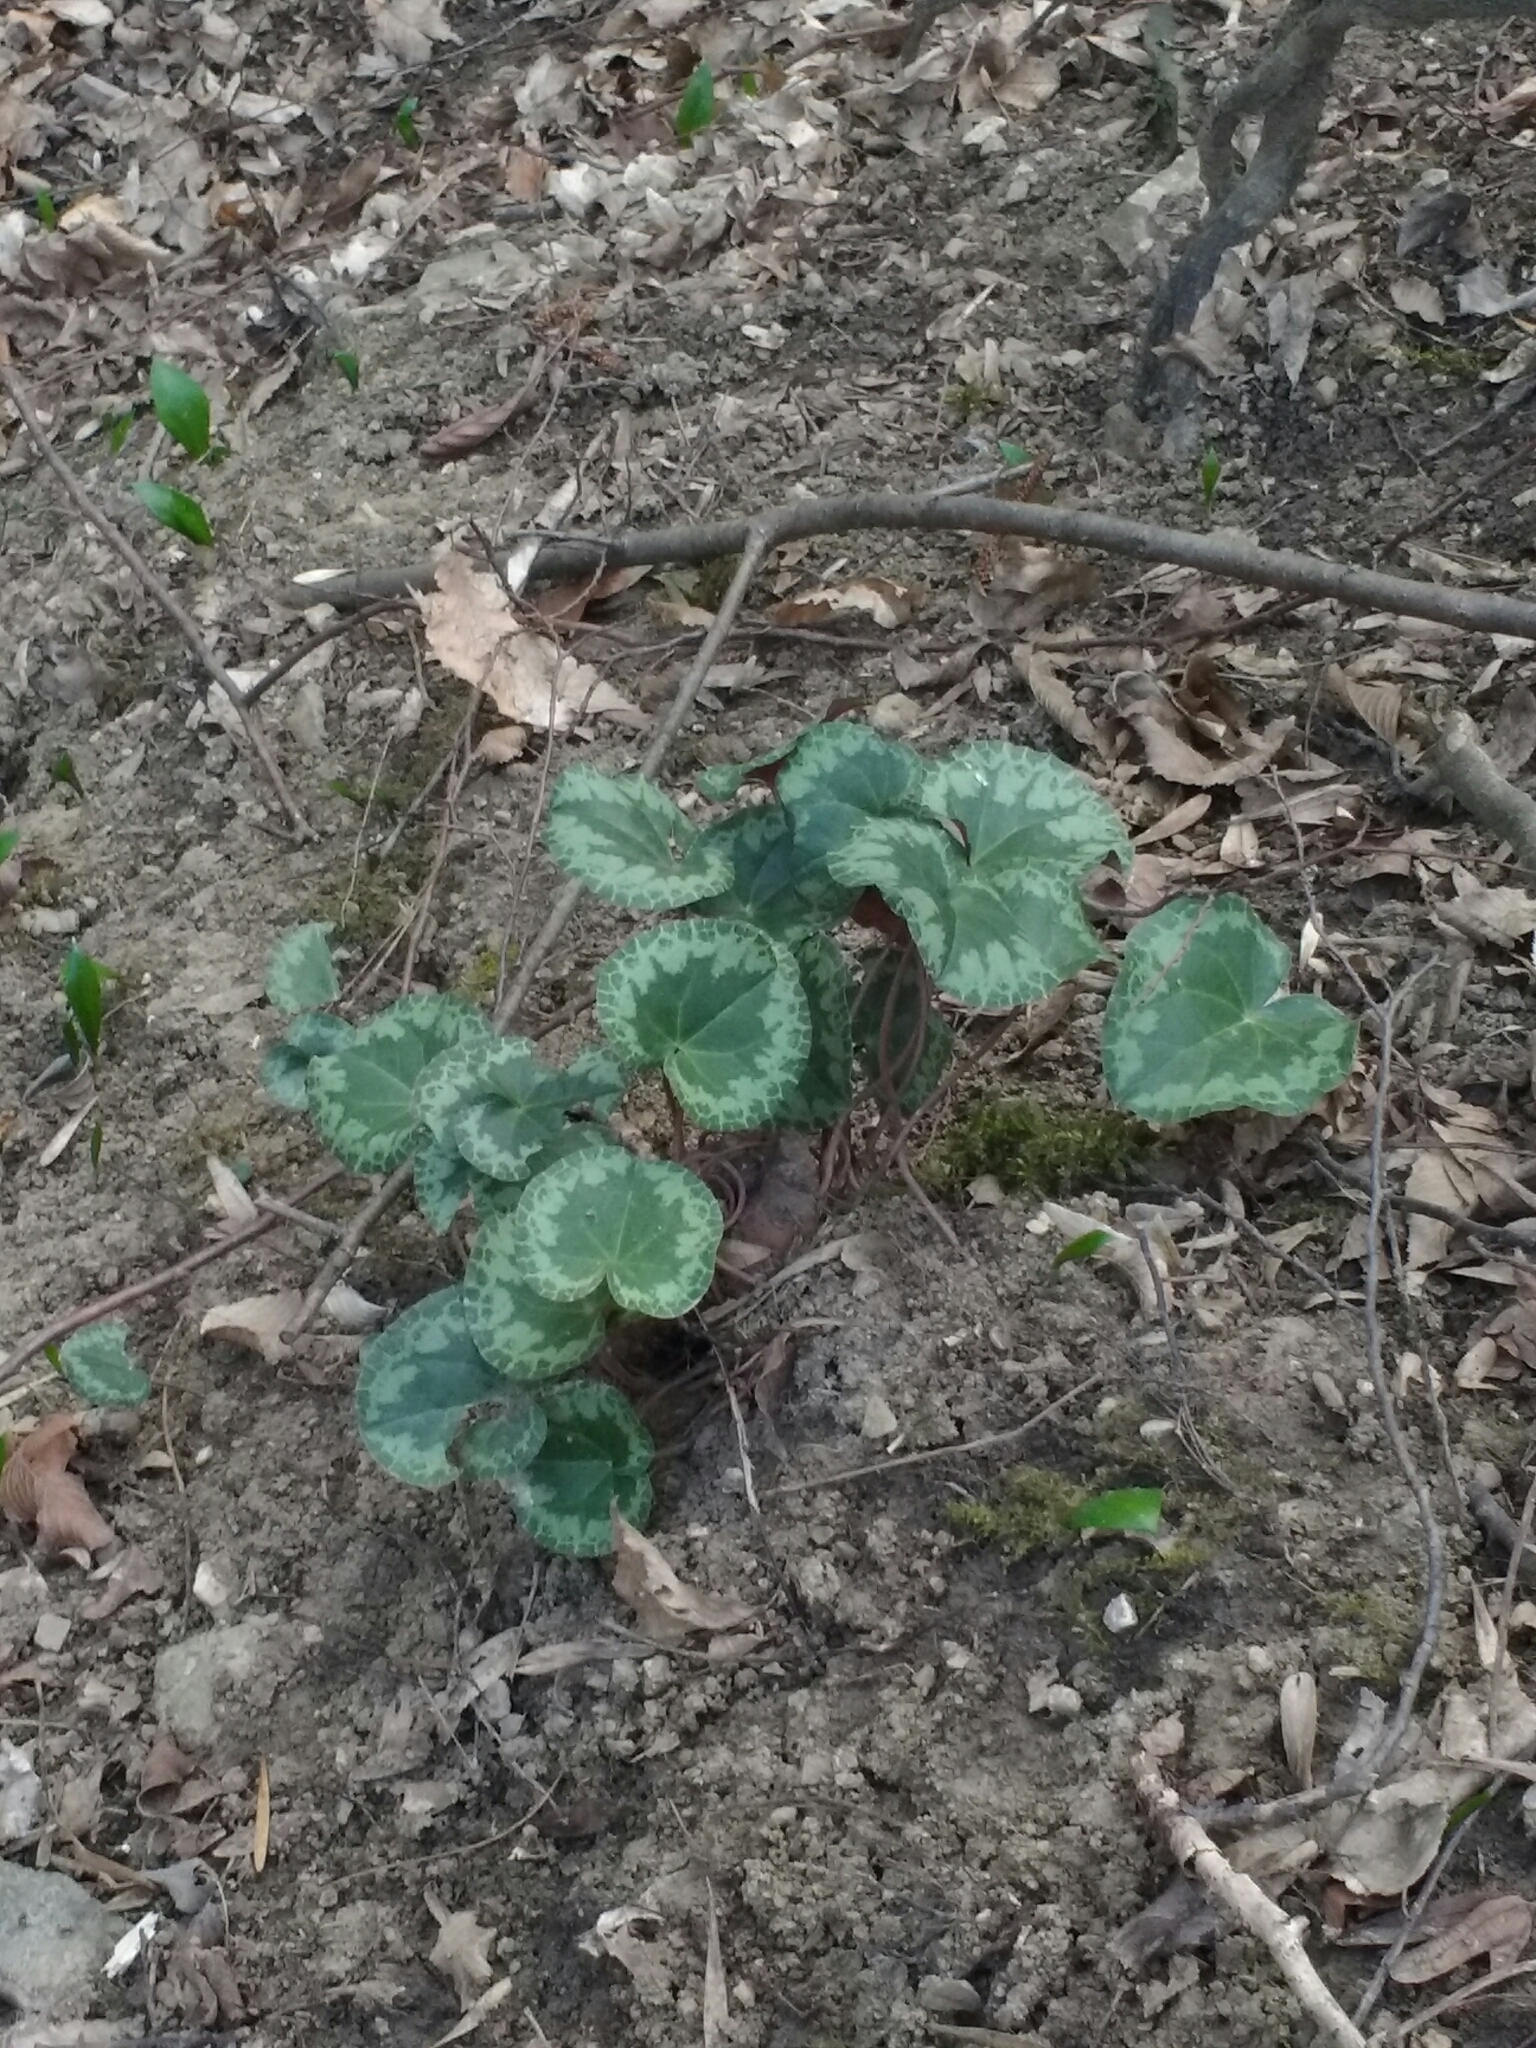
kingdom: Plantae
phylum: Tracheophyta
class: Magnoliopsida
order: Ericales
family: Primulaceae
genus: Cyclamen
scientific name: Cyclamen purpurascens
